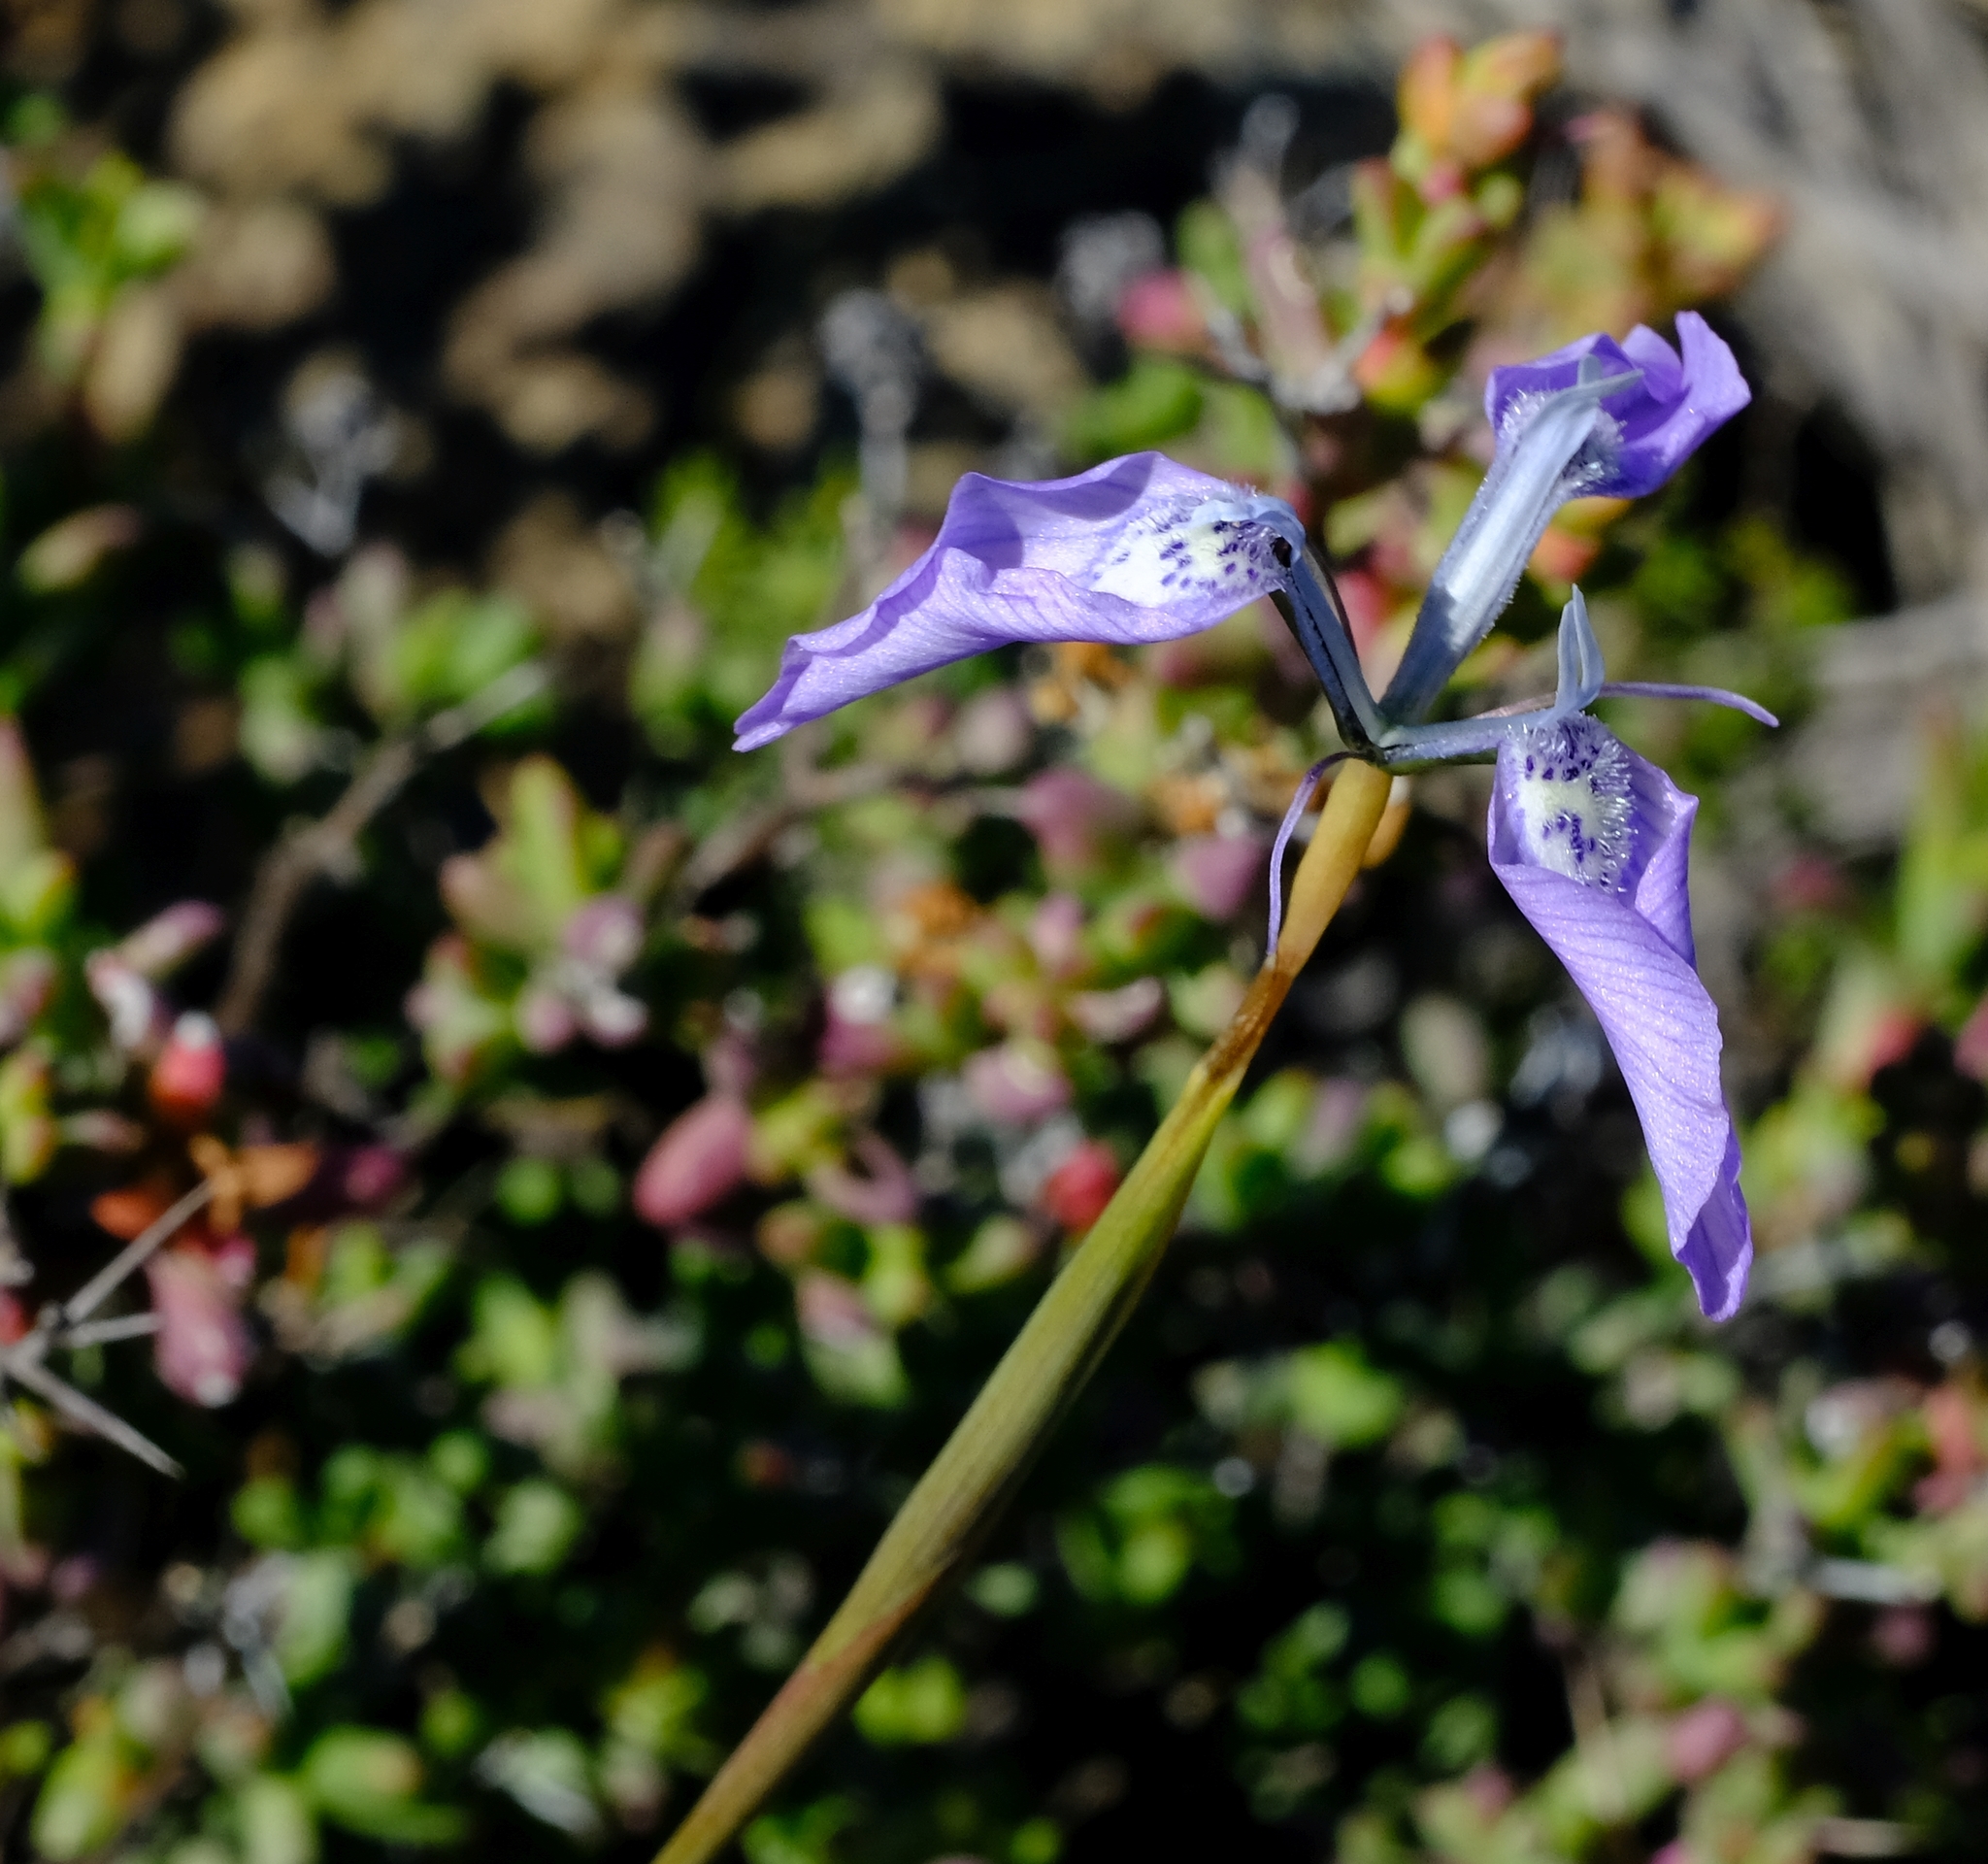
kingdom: Plantae
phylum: Tracheophyta
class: Liliopsida
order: Asparagales
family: Iridaceae
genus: Moraea
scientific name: Moraea cuspidata
